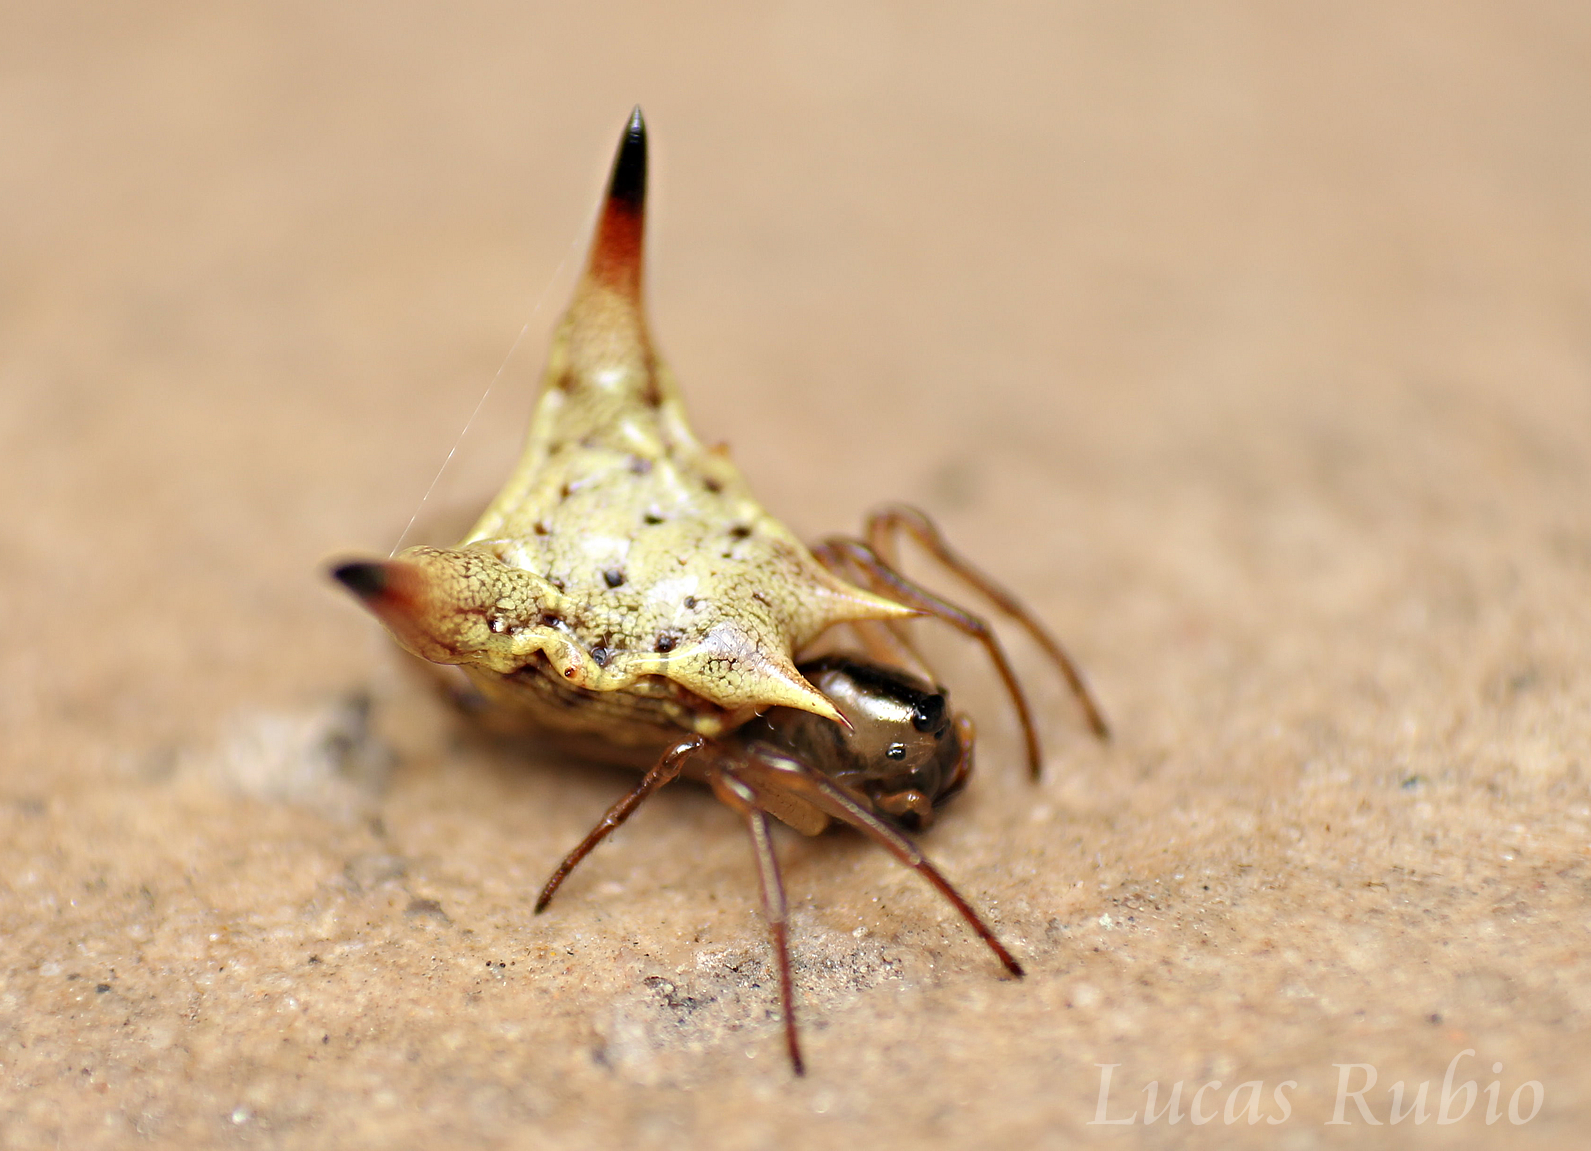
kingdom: Animalia
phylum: Arthropoda
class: Arachnida
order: Araneae
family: Araneidae
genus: Micrathena
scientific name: Micrathena annulata
